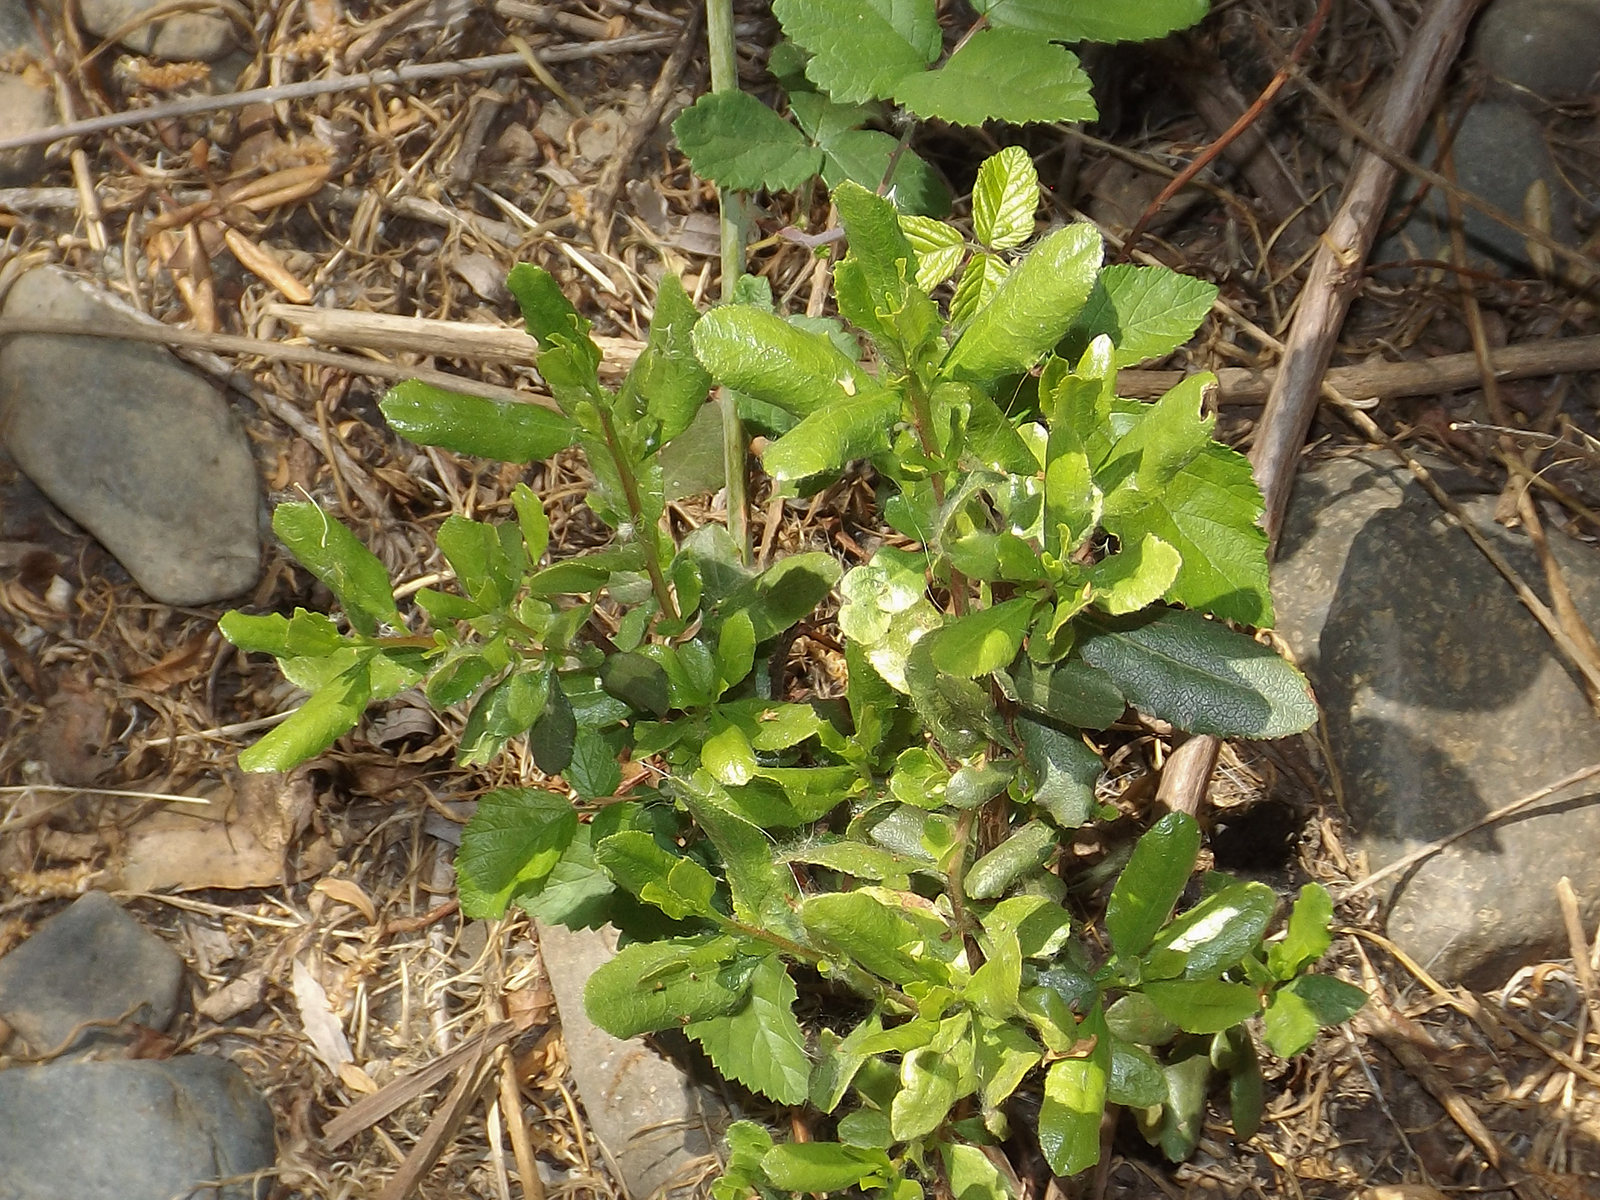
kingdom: Plantae
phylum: Tracheophyta
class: Magnoliopsida
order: Escalloniales
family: Escalloniaceae
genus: Escallonia
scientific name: Escallonia illinita
